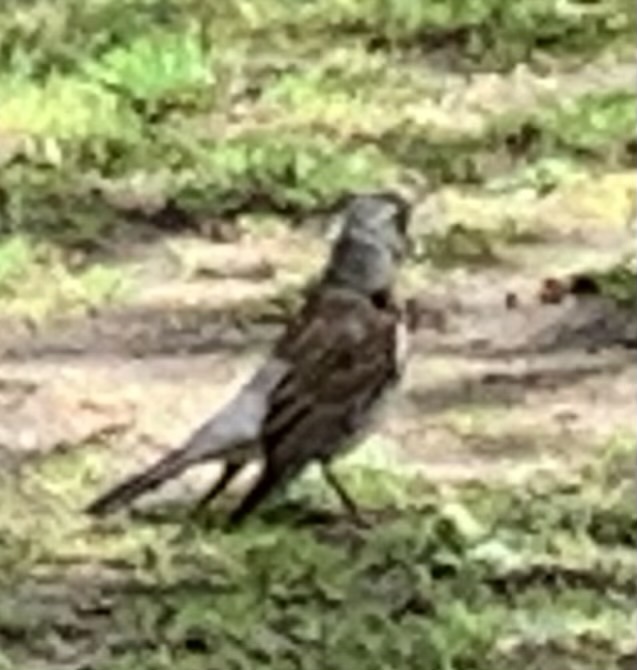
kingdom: Animalia
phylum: Chordata
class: Aves
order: Passeriformes
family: Turdidae
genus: Turdus
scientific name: Turdus pilaris
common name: Fieldfare
